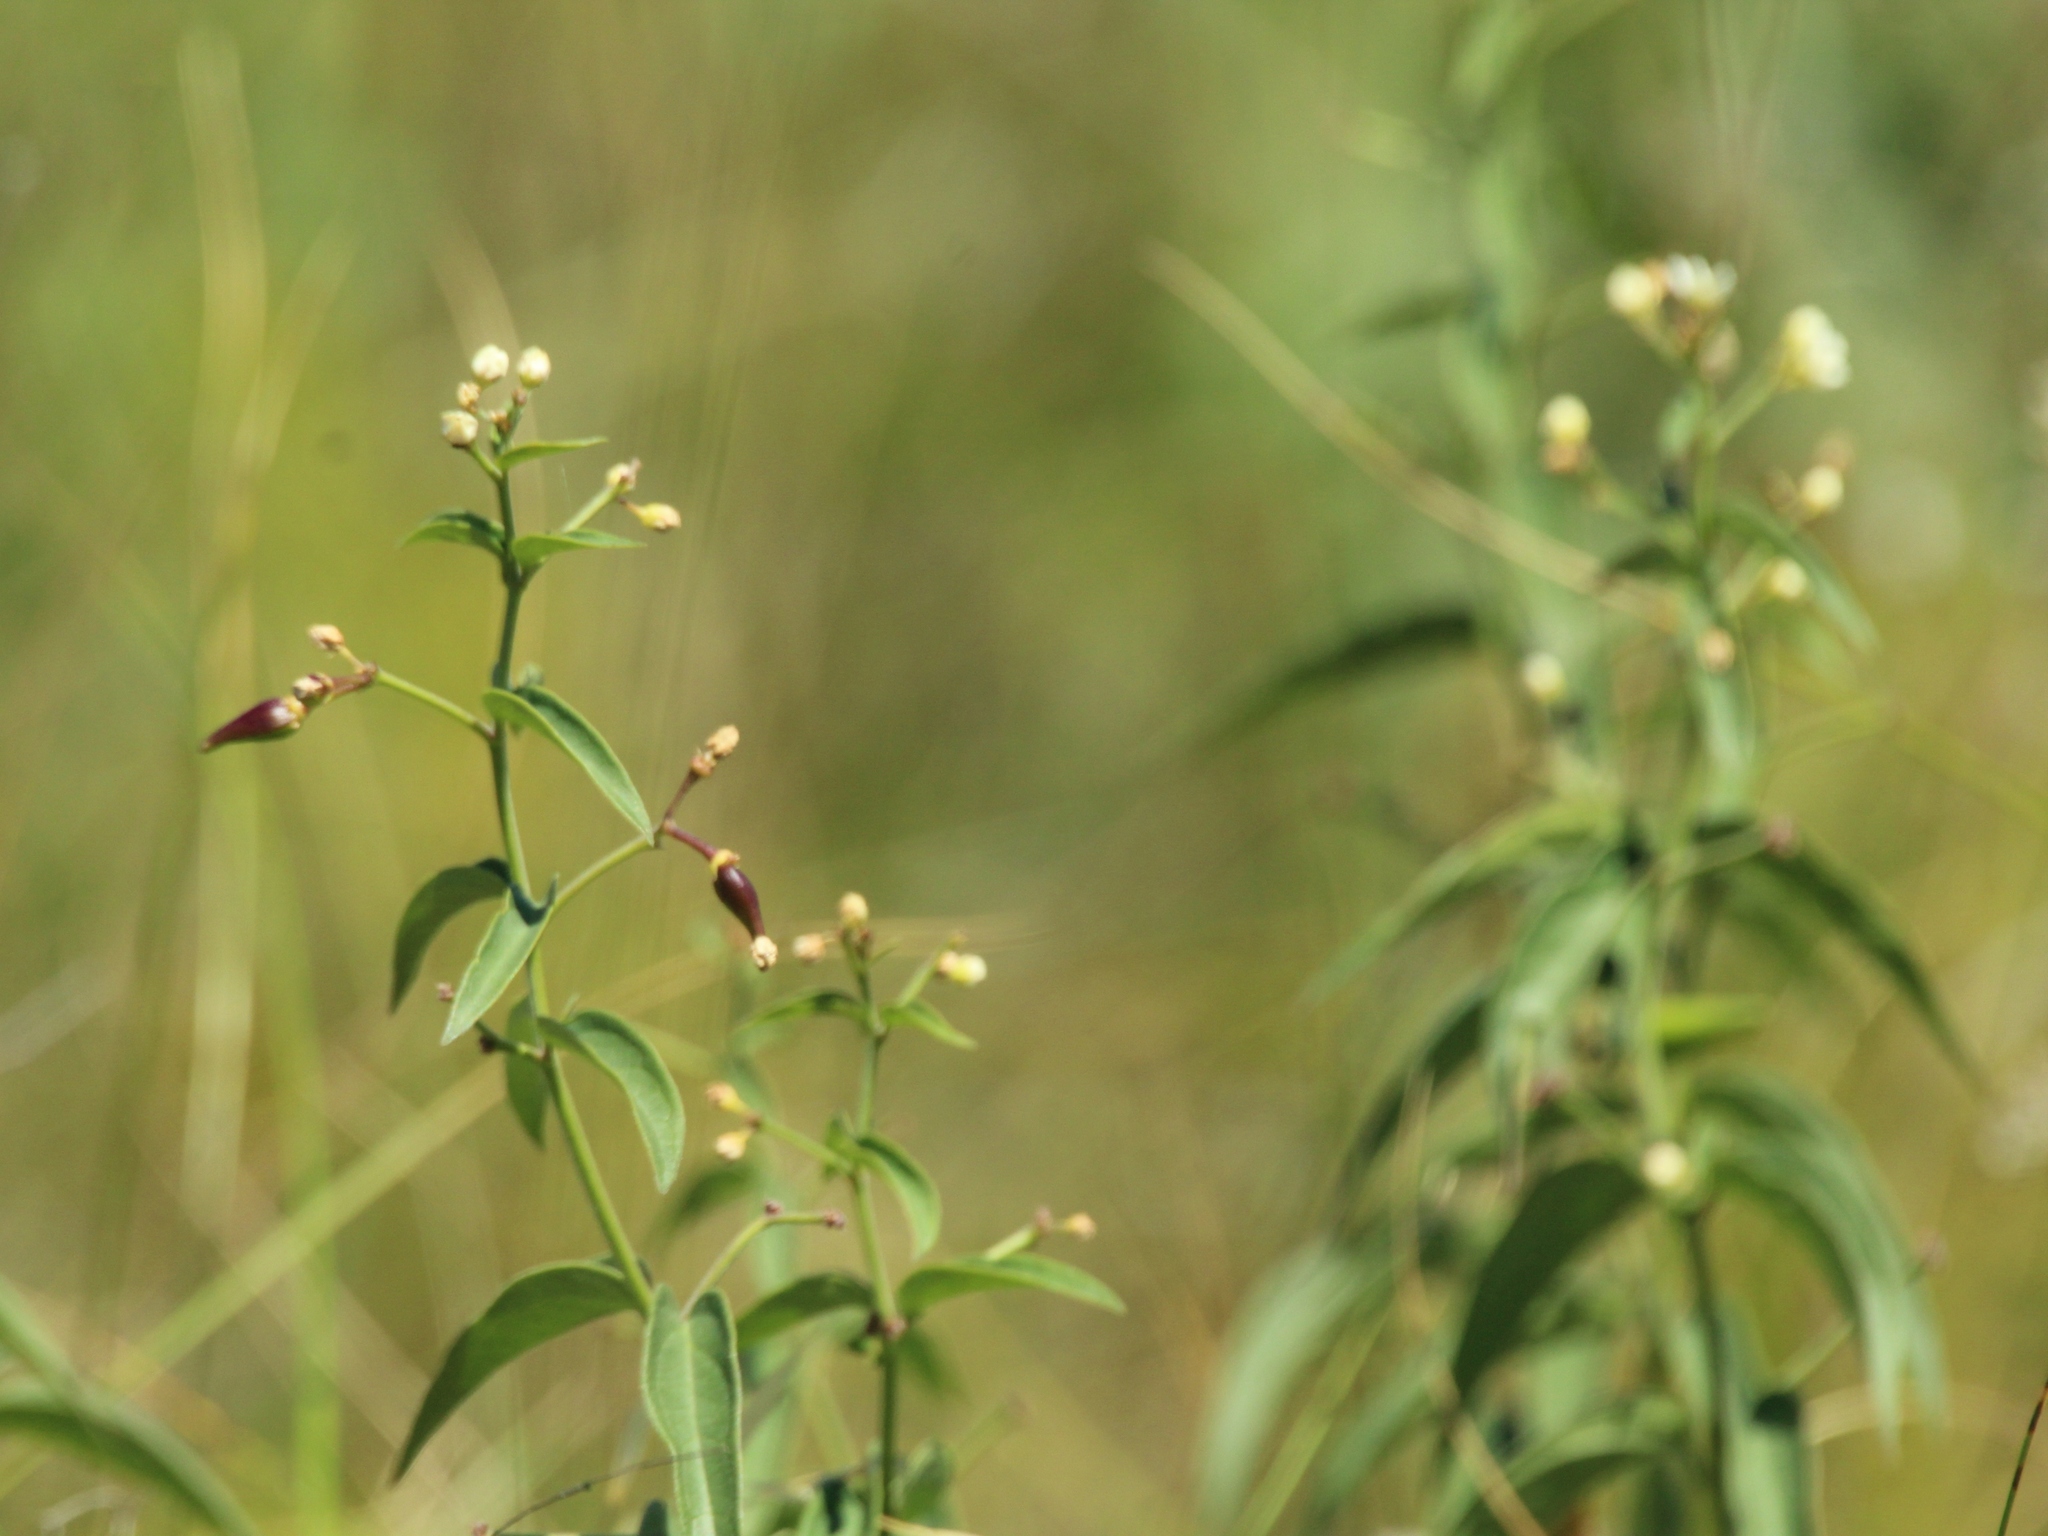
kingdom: Plantae
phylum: Tracheophyta
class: Magnoliopsida
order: Gentianales
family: Apocynaceae
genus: Vincetoxicum
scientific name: Vincetoxicum hirundinaria
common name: White swallowwort
